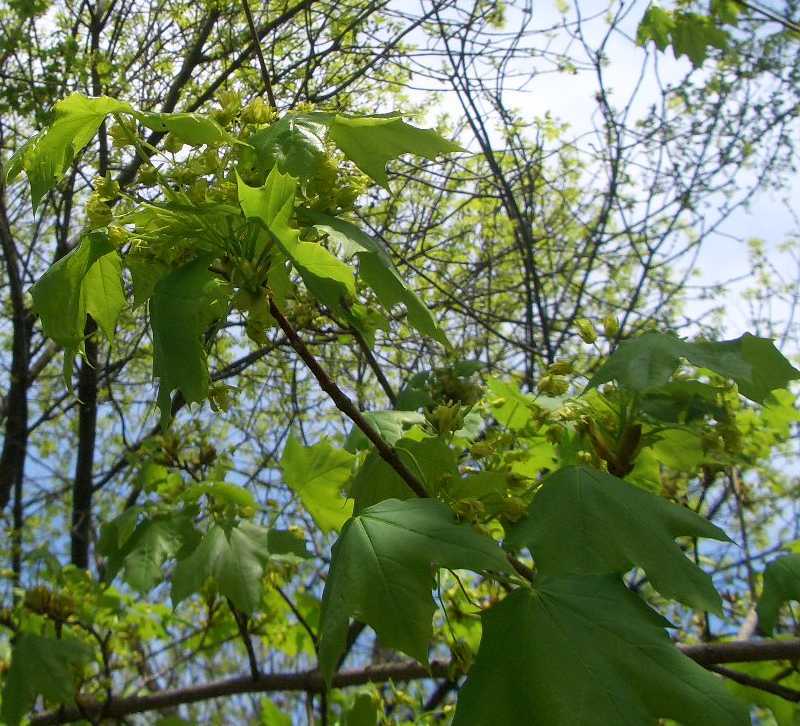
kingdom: Plantae
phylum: Tracheophyta
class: Magnoliopsida
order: Sapindales
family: Sapindaceae
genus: Acer
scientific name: Acer platanoides
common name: Norway maple
